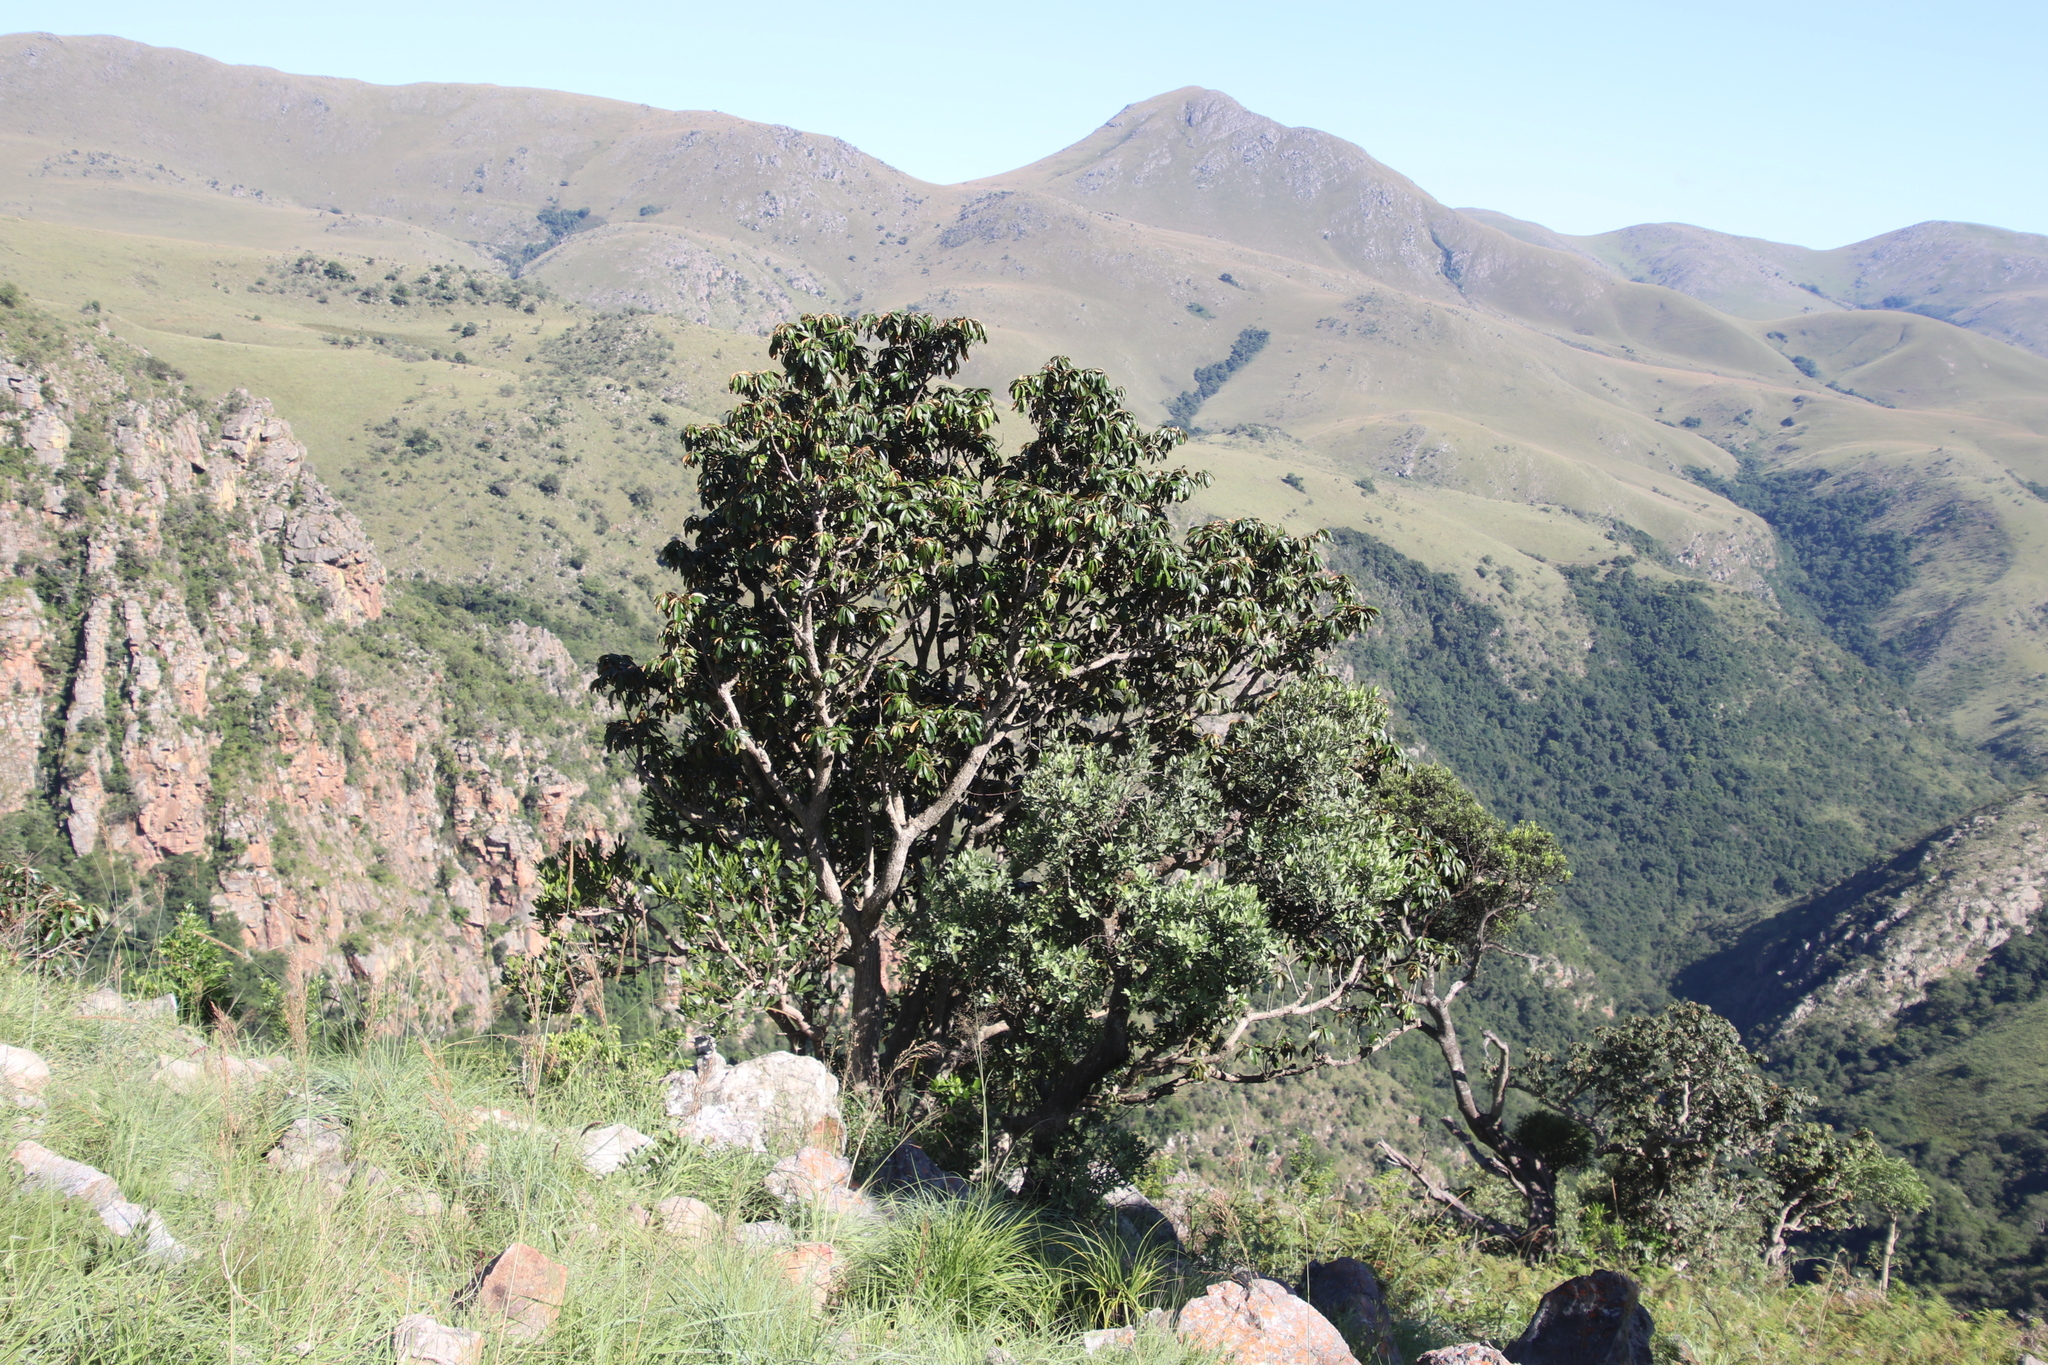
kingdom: Plantae
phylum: Tracheophyta
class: Magnoliopsida
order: Ericales
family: Sapotaceae
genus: Englerophytum
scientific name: Englerophytum magalismontanum
